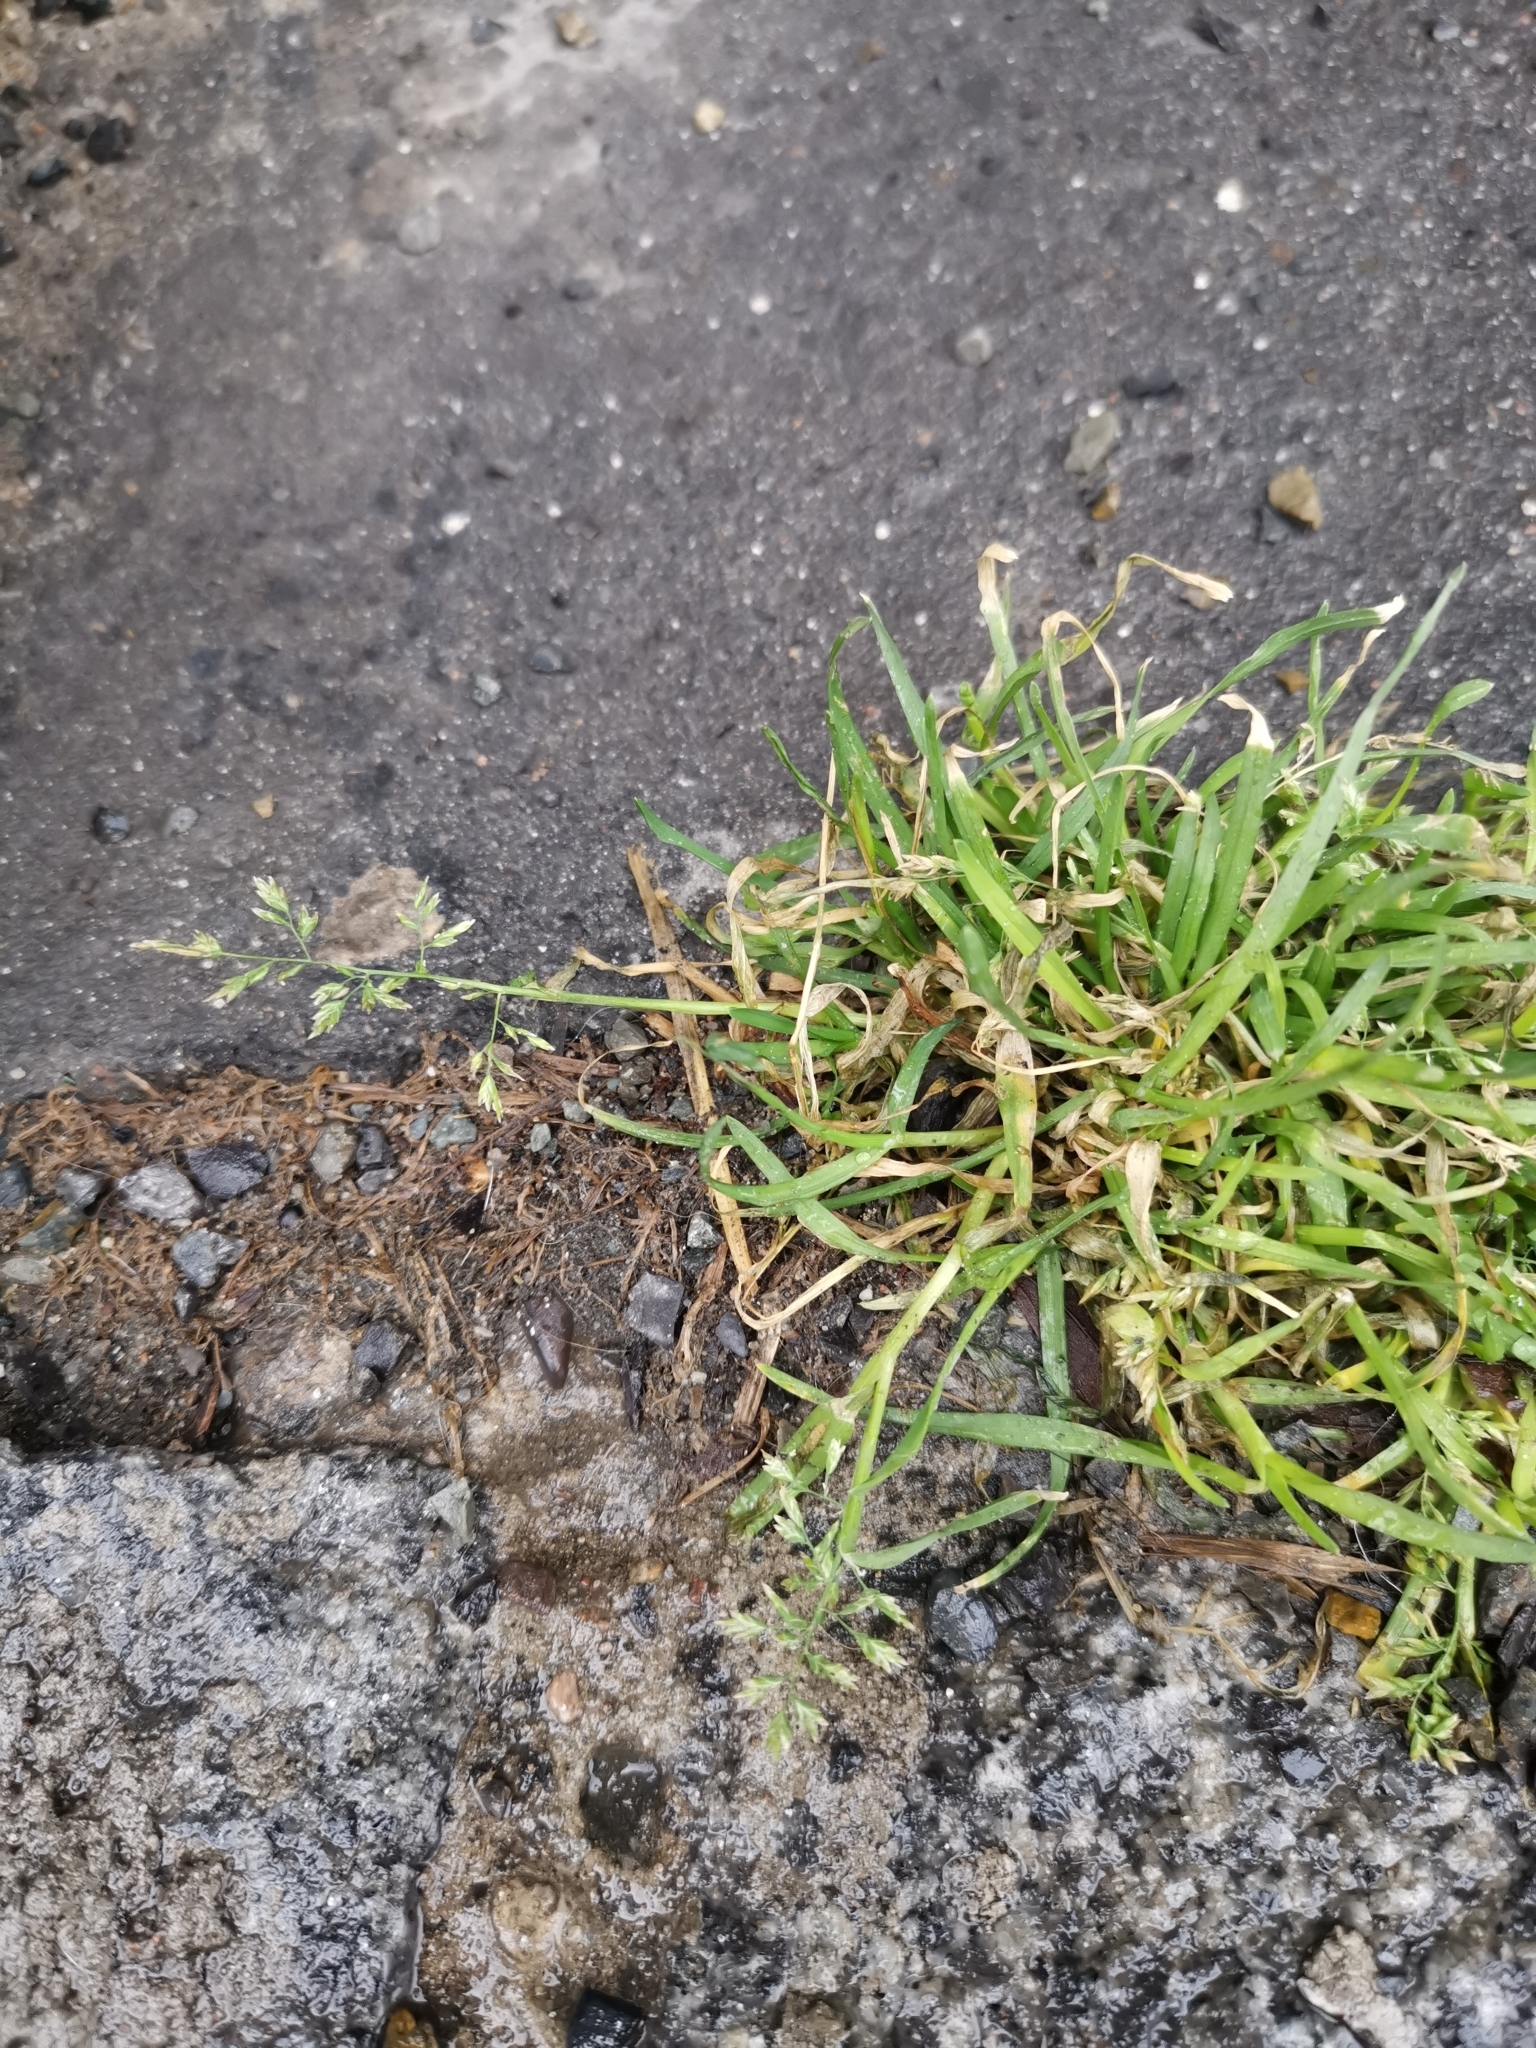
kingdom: Plantae
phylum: Tracheophyta
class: Liliopsida
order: Poales
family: Poaceae
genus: Poa
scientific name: Poa annua
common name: Annual bluegrass
